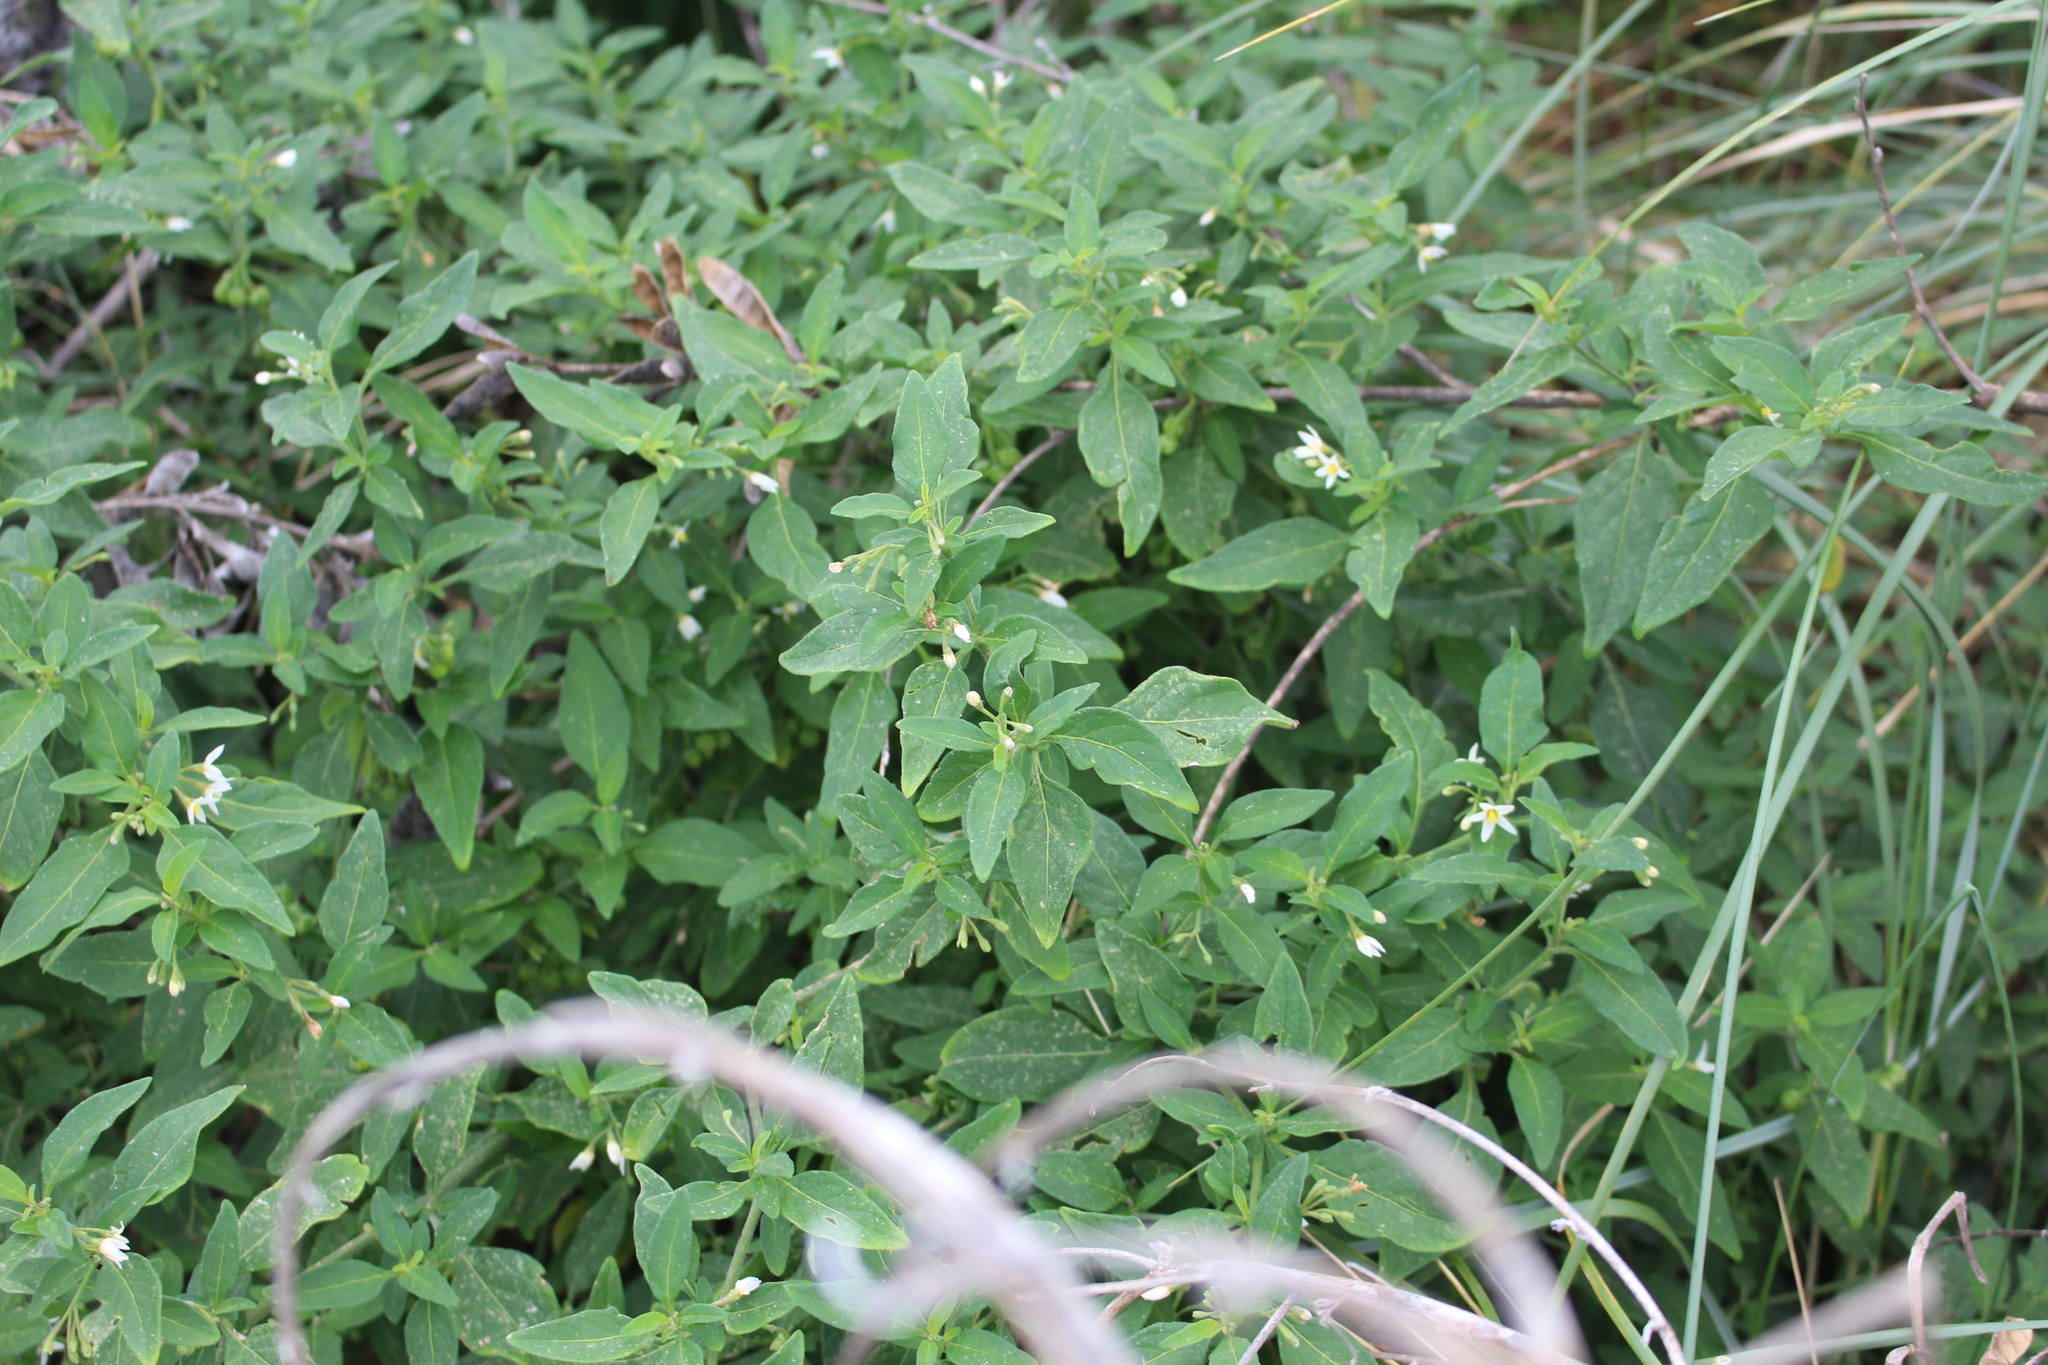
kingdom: Plantae
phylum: Tracheophyta
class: Magnoliopsida
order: Solanales
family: Solanaceae
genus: Solanum
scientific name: Solanum chenopodioides
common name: Tall nightshade
